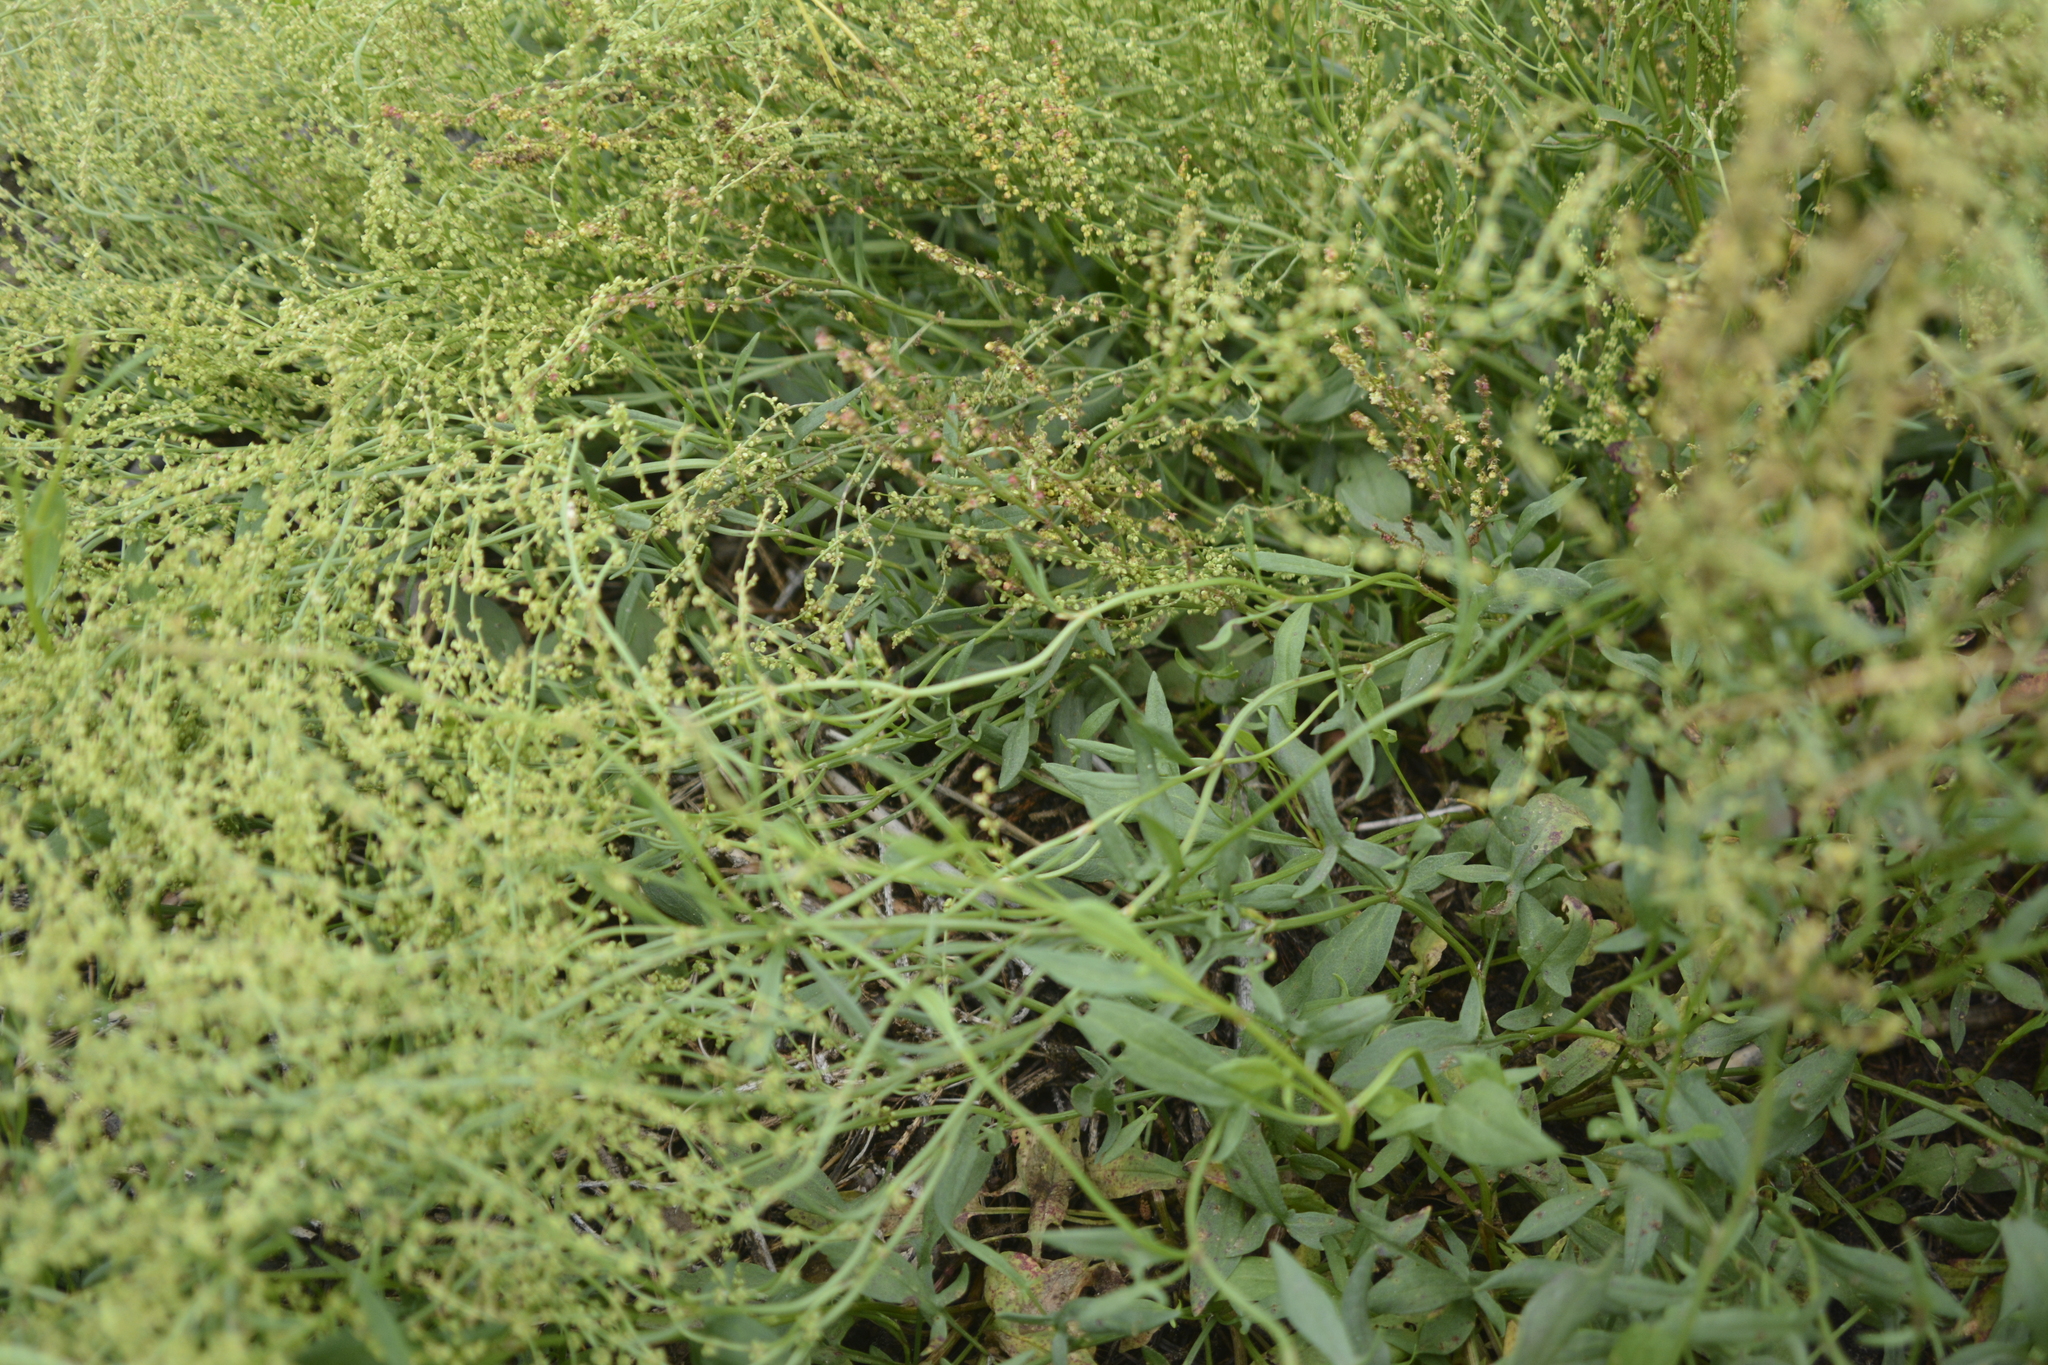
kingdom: Plantae
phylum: Tracheophyta
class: Magnoliopsida
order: Caryophyllales
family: Polygonaceae
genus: Rumex
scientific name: Rumex acetosella
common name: Common sheep sorrel
